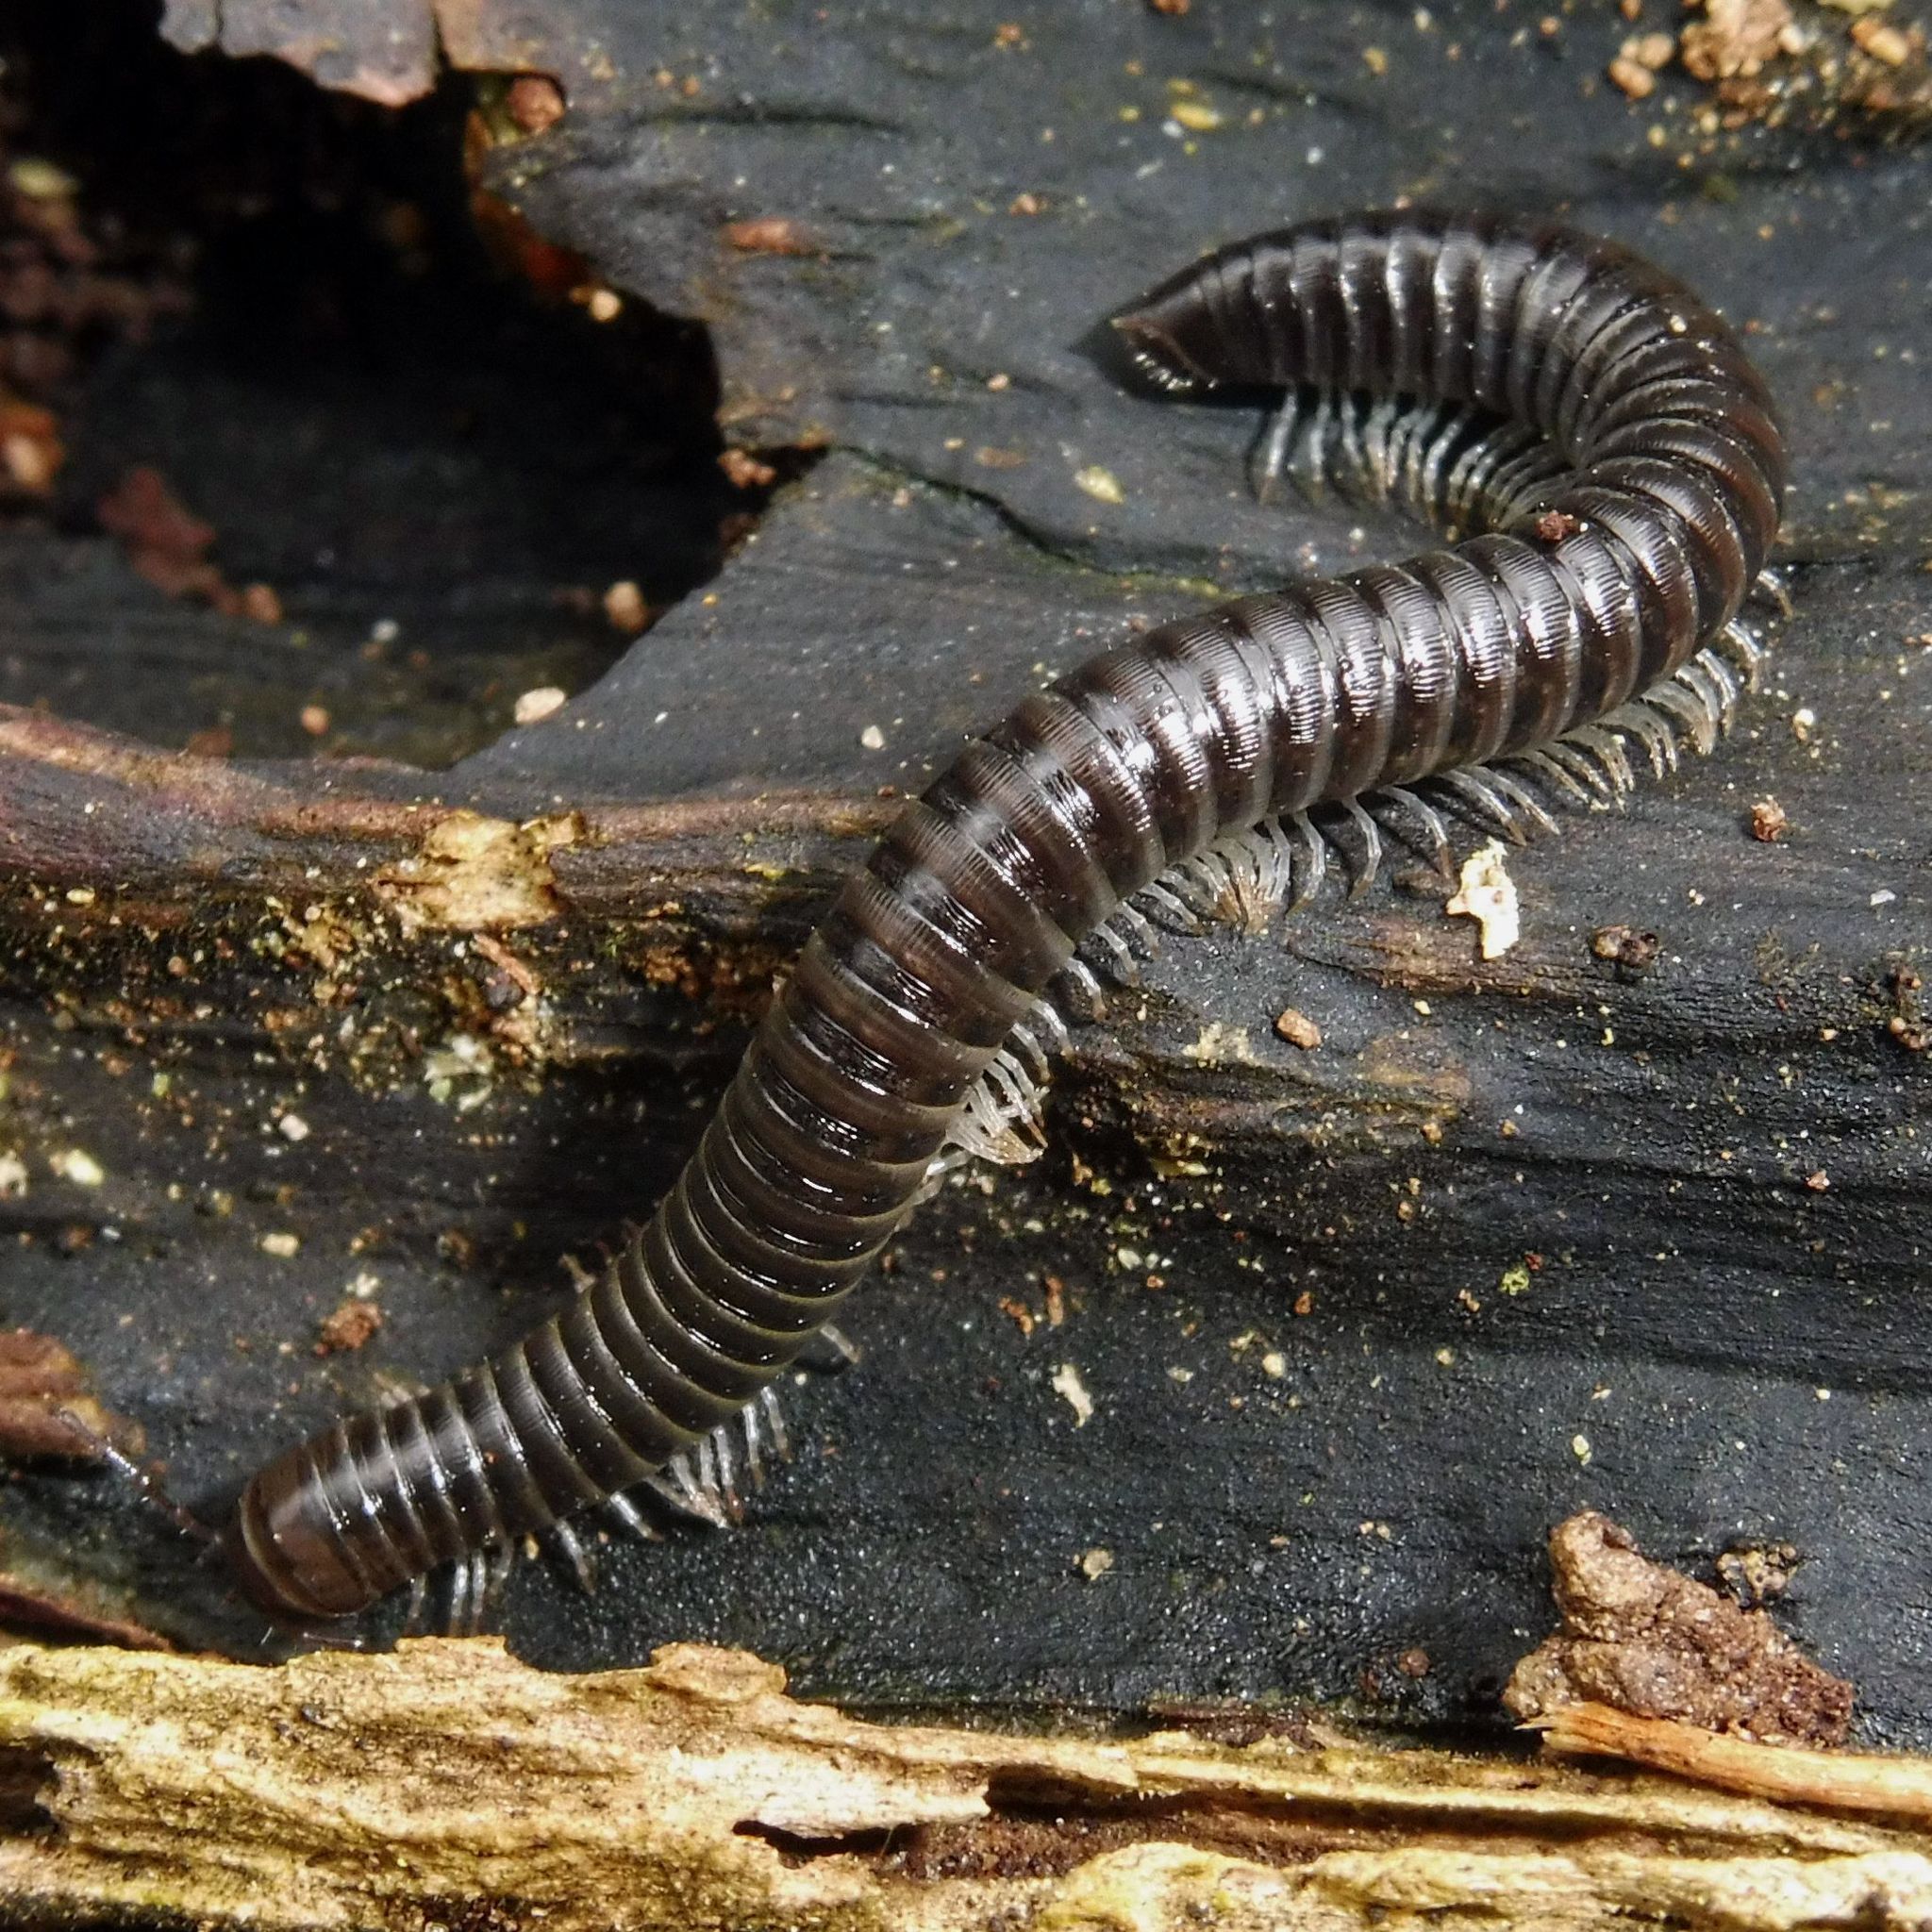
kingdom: Animalia
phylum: Arthropoda
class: Diplopoda
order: Julida
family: Julidae
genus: Tachypodoiulus
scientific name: Tachypodoiulus niger
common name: White-legged snake millipede
